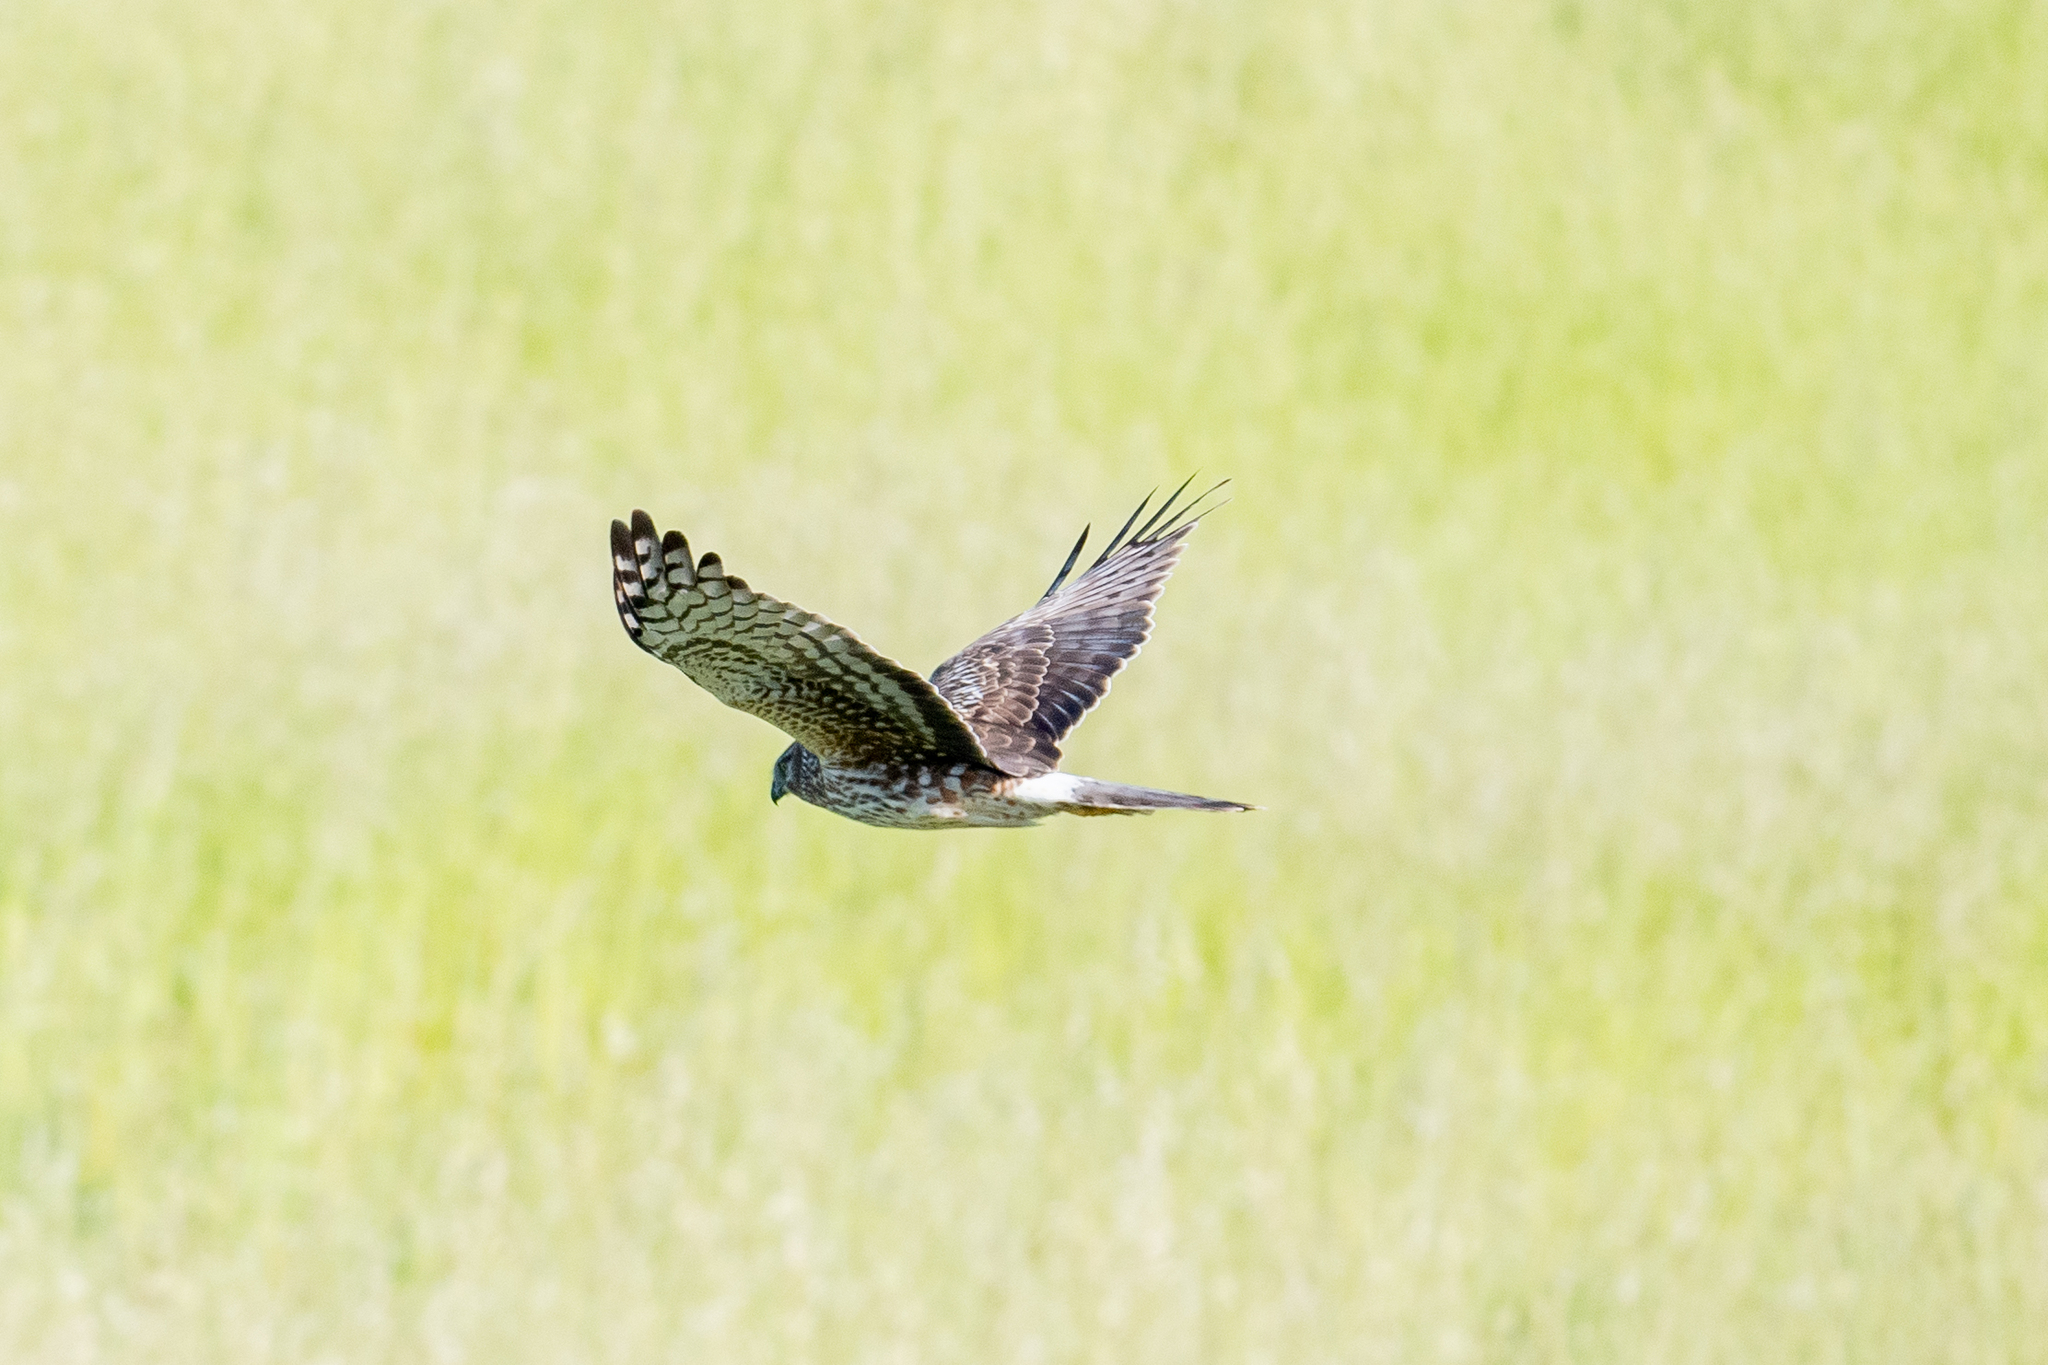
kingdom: Animalia
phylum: Chordata
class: Aves
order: Accipitriformes
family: Accipitridae
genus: Circus
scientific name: Circus cyaneus
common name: Hen harrier
